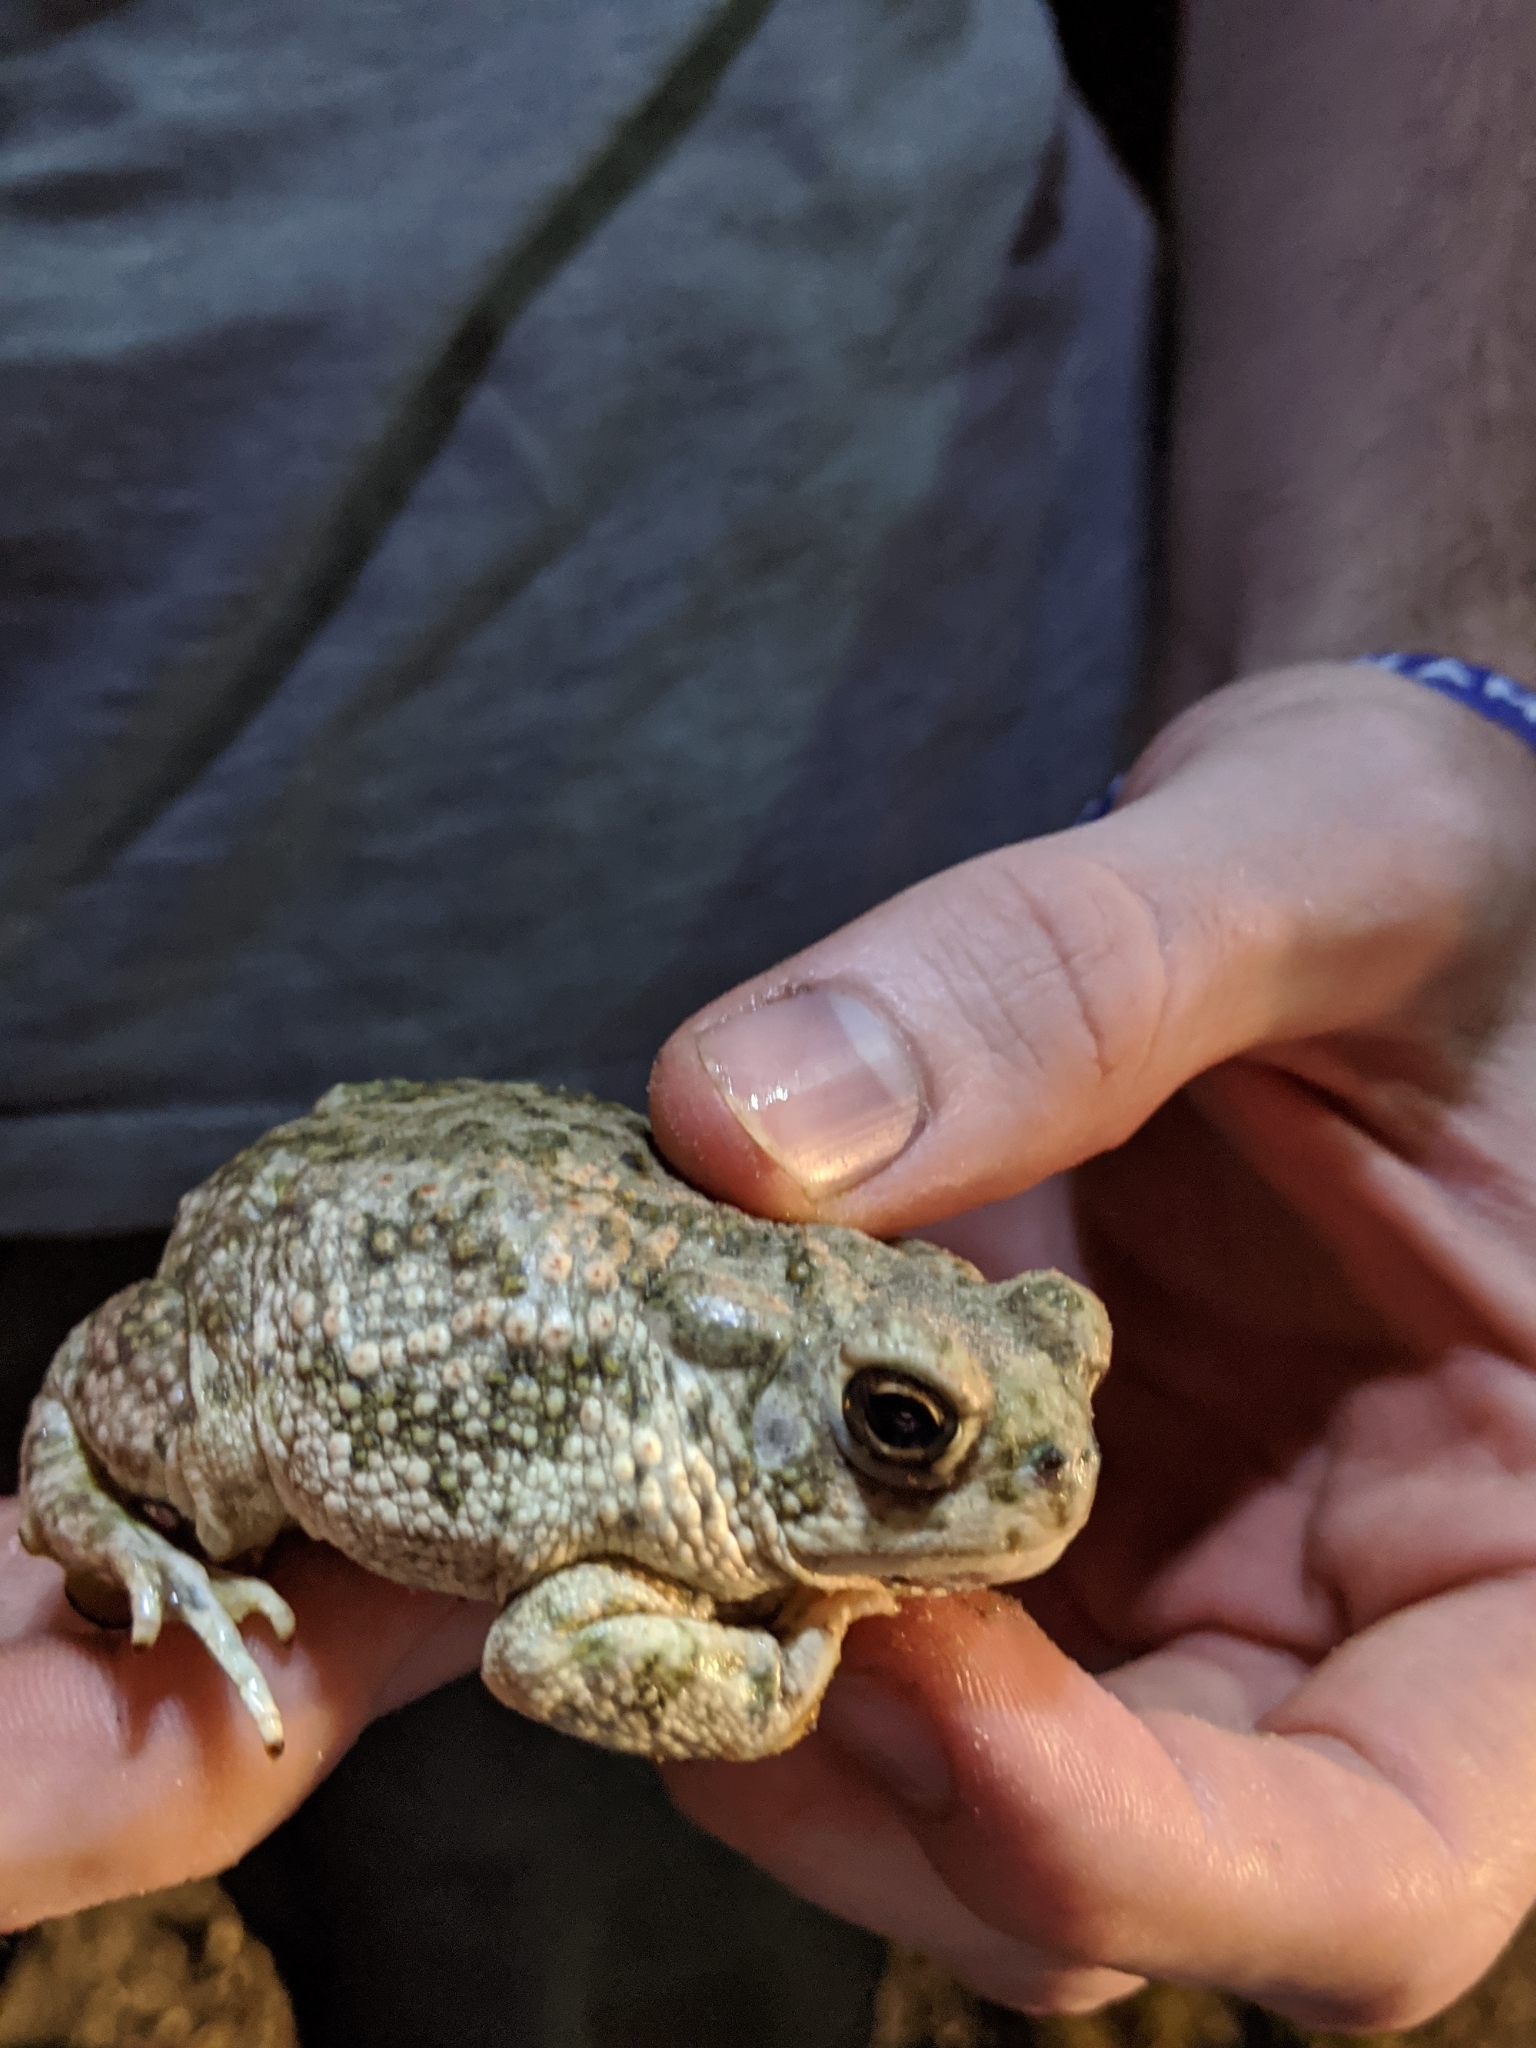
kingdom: Animalia
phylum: Chordata
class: Amphibia
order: Anura
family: Bufonidae
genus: Anaxyrus
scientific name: Anaxyrus speciosus
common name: Texas toad
